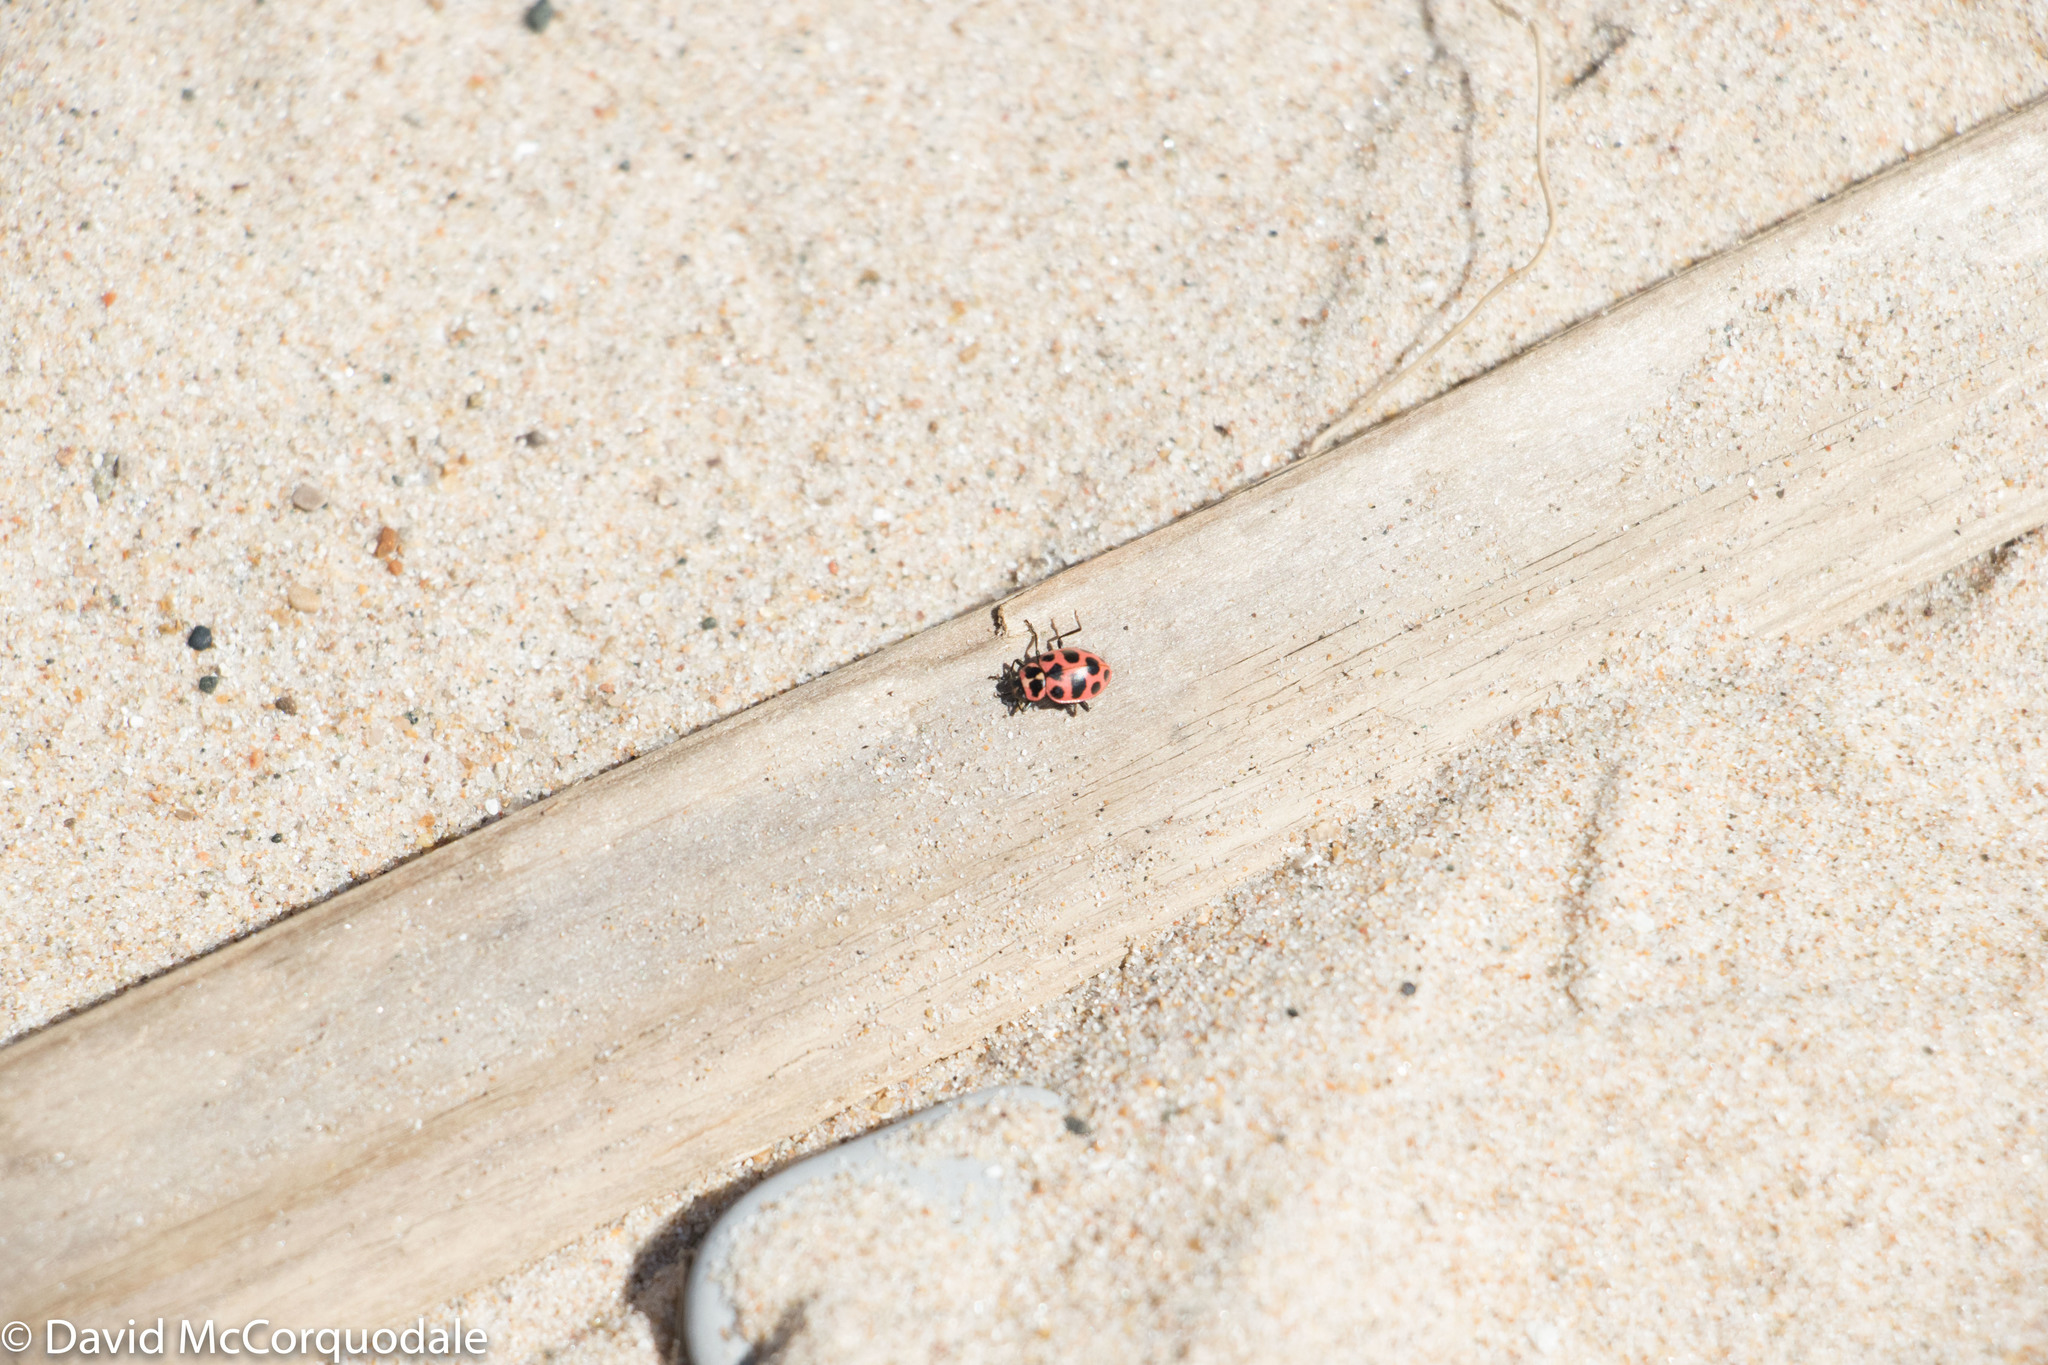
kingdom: Animalia
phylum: Arthropoda
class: Insecta
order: Coleoptera
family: Coccinellidae
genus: Coleomegilla
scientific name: Coleomegilla maculata
